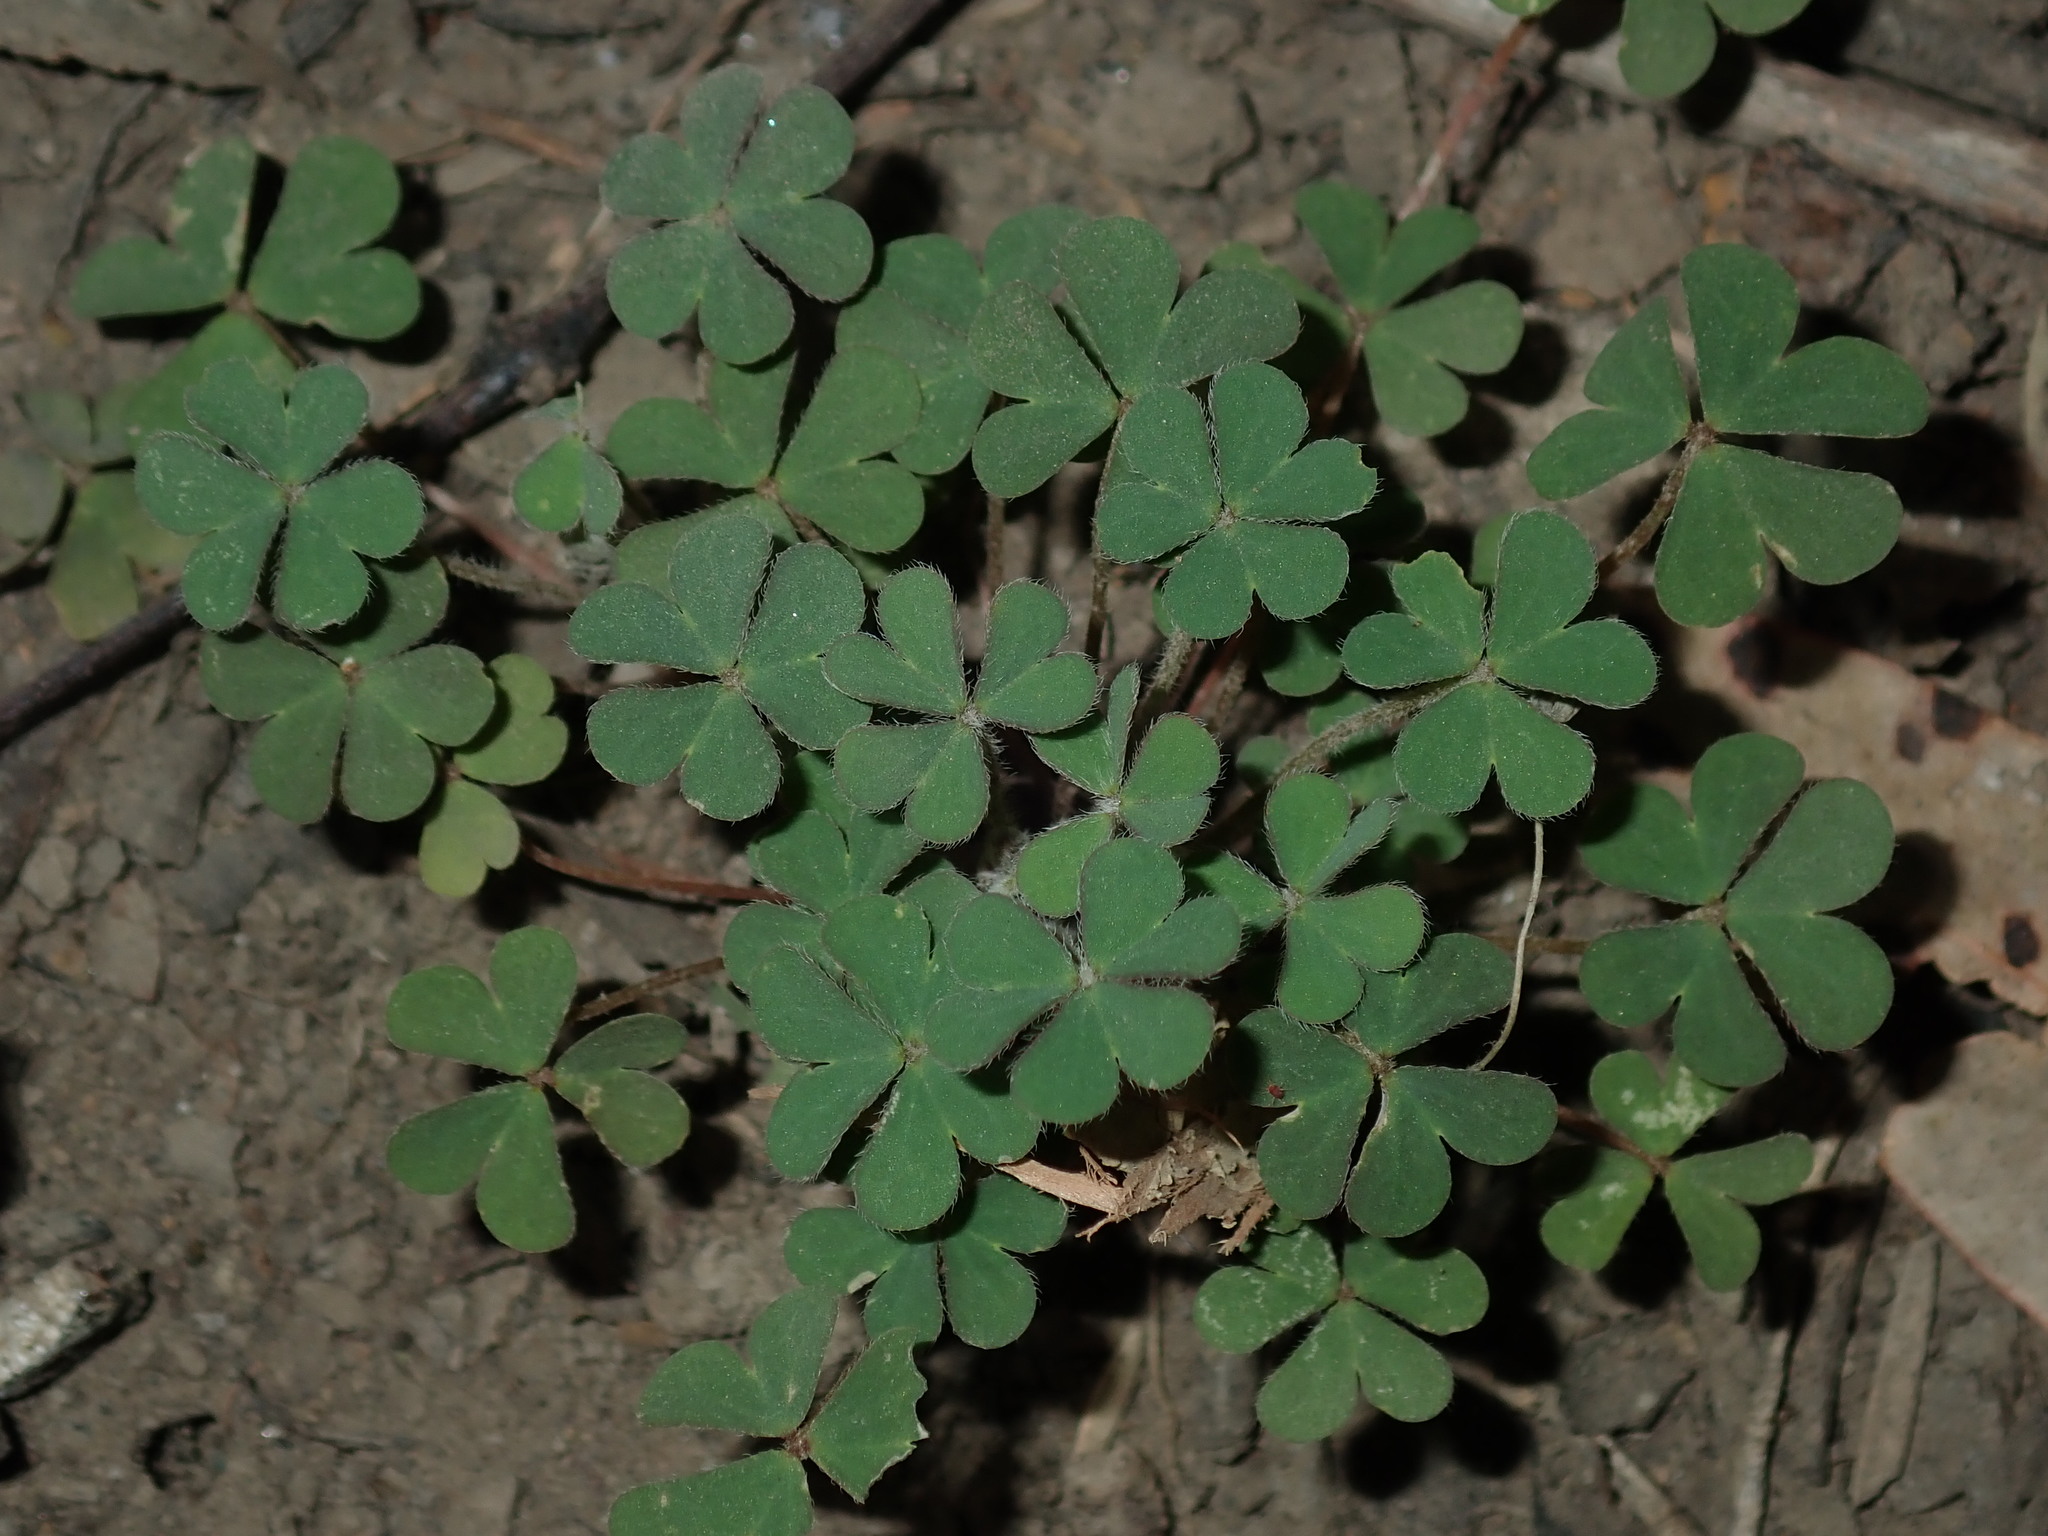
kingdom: Plantae
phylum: Tracheophyta
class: Magnoliopsida
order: Oxalidales
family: Oxalidaceae
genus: Oxalis
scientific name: Oxalis corniculata
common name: Procumbent yellow-sorrel
